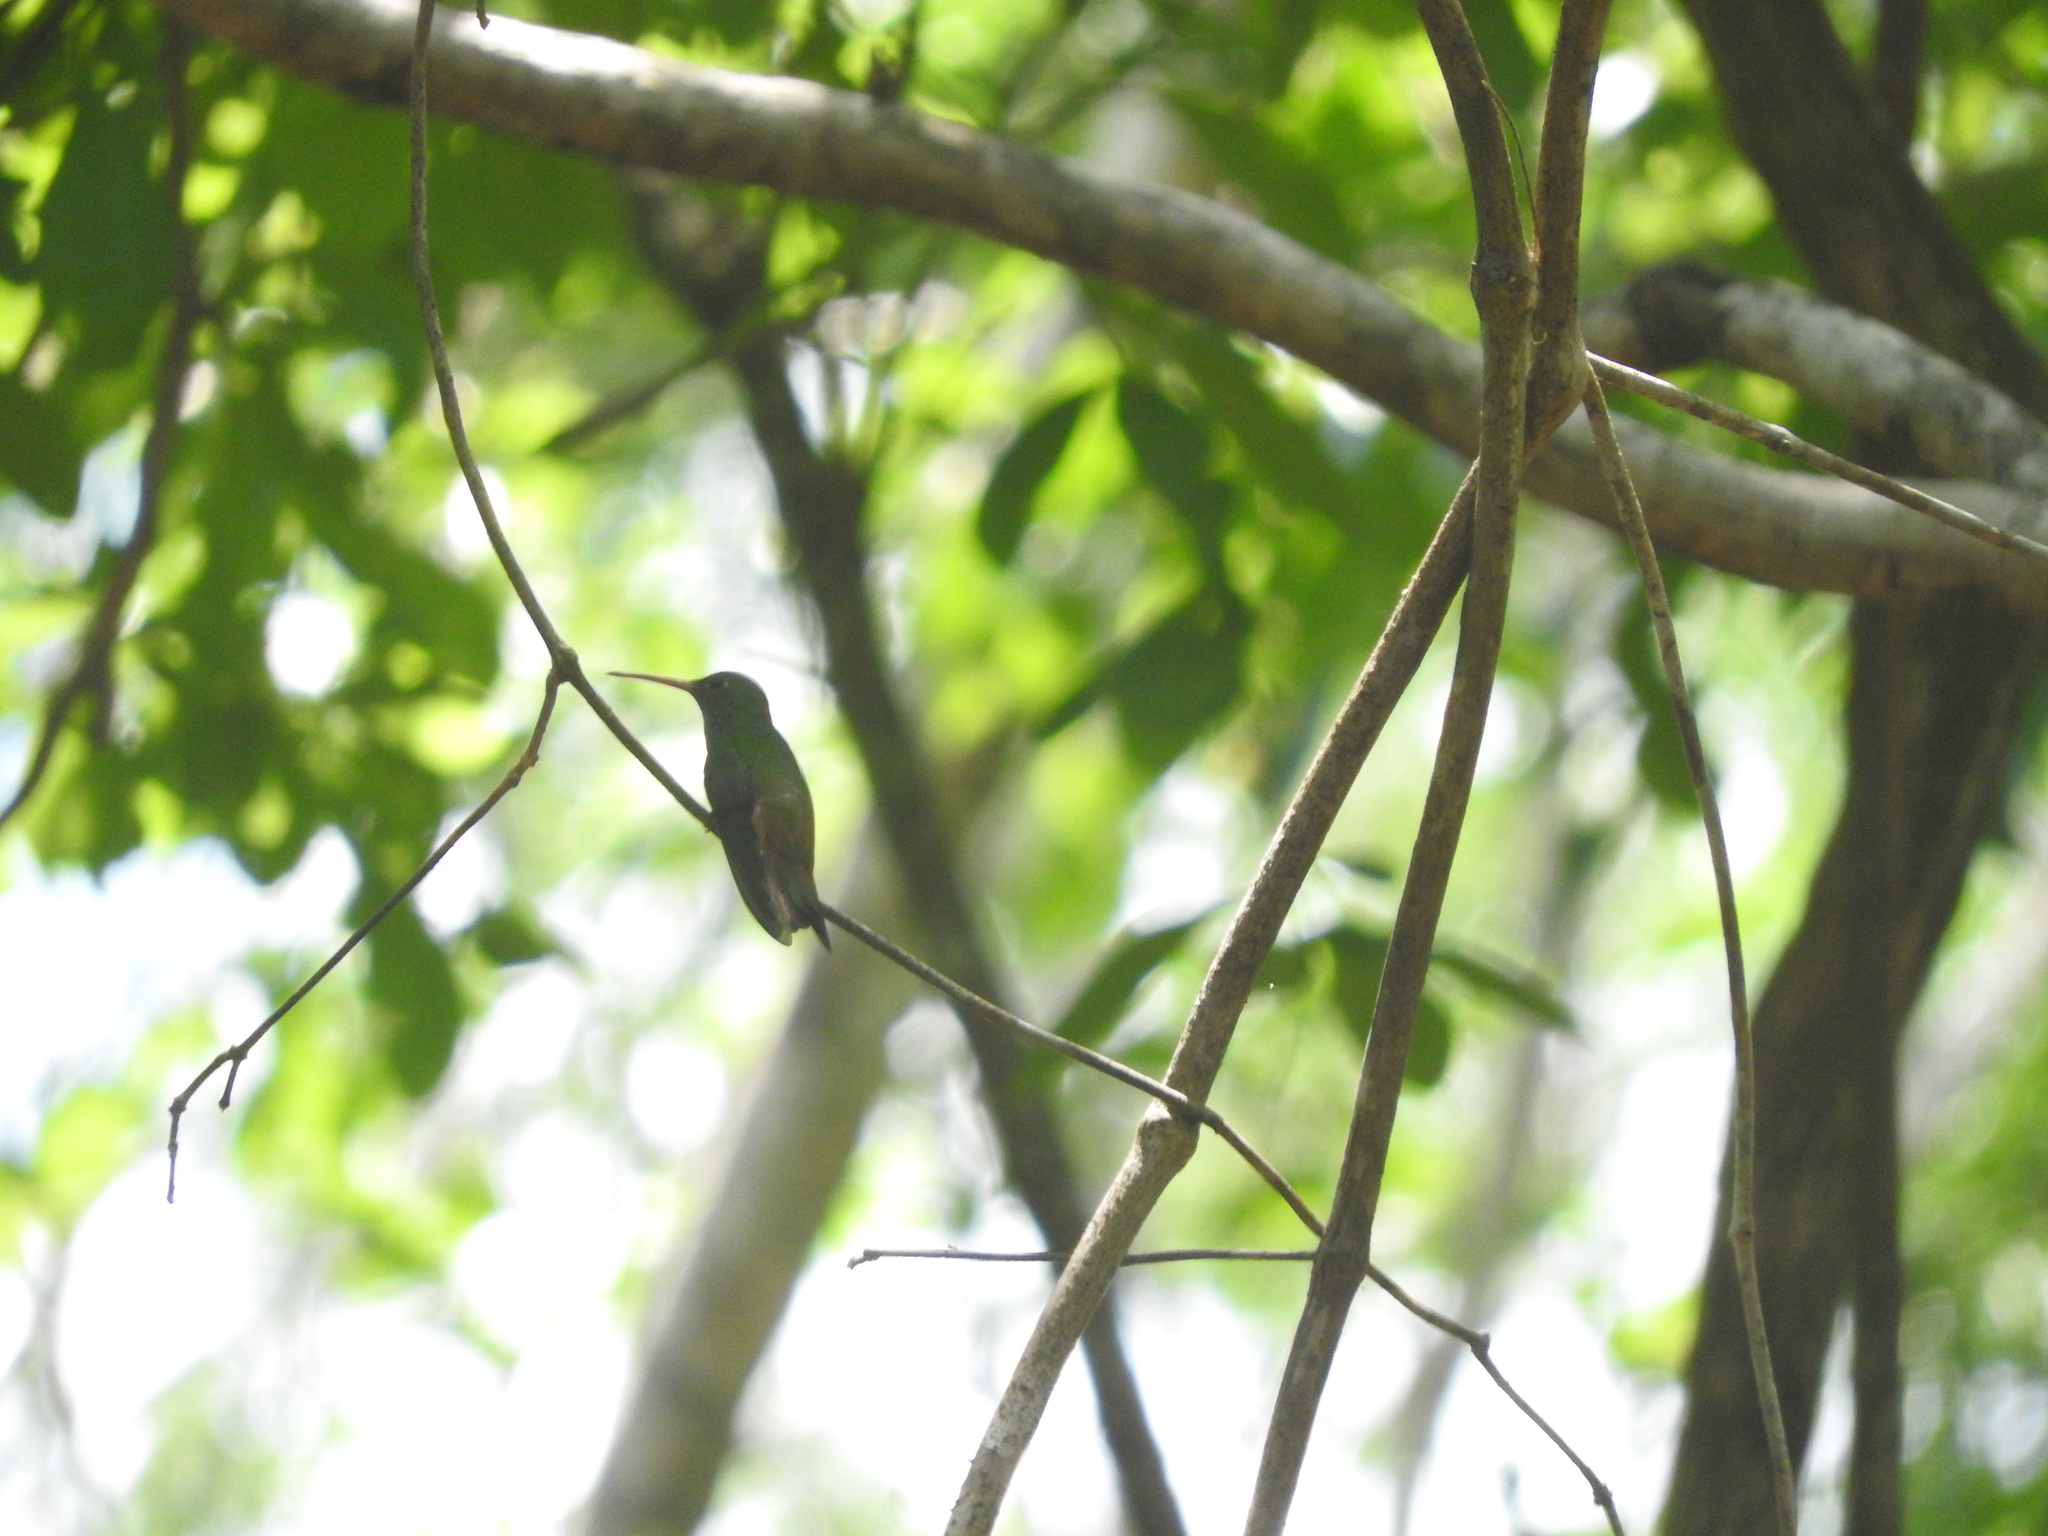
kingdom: Animalia
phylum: Chordata
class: Aves
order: Apodiformes
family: Trochilidae
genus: Amazilia
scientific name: Amazilia rutila
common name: Cinnamon hummingbird
